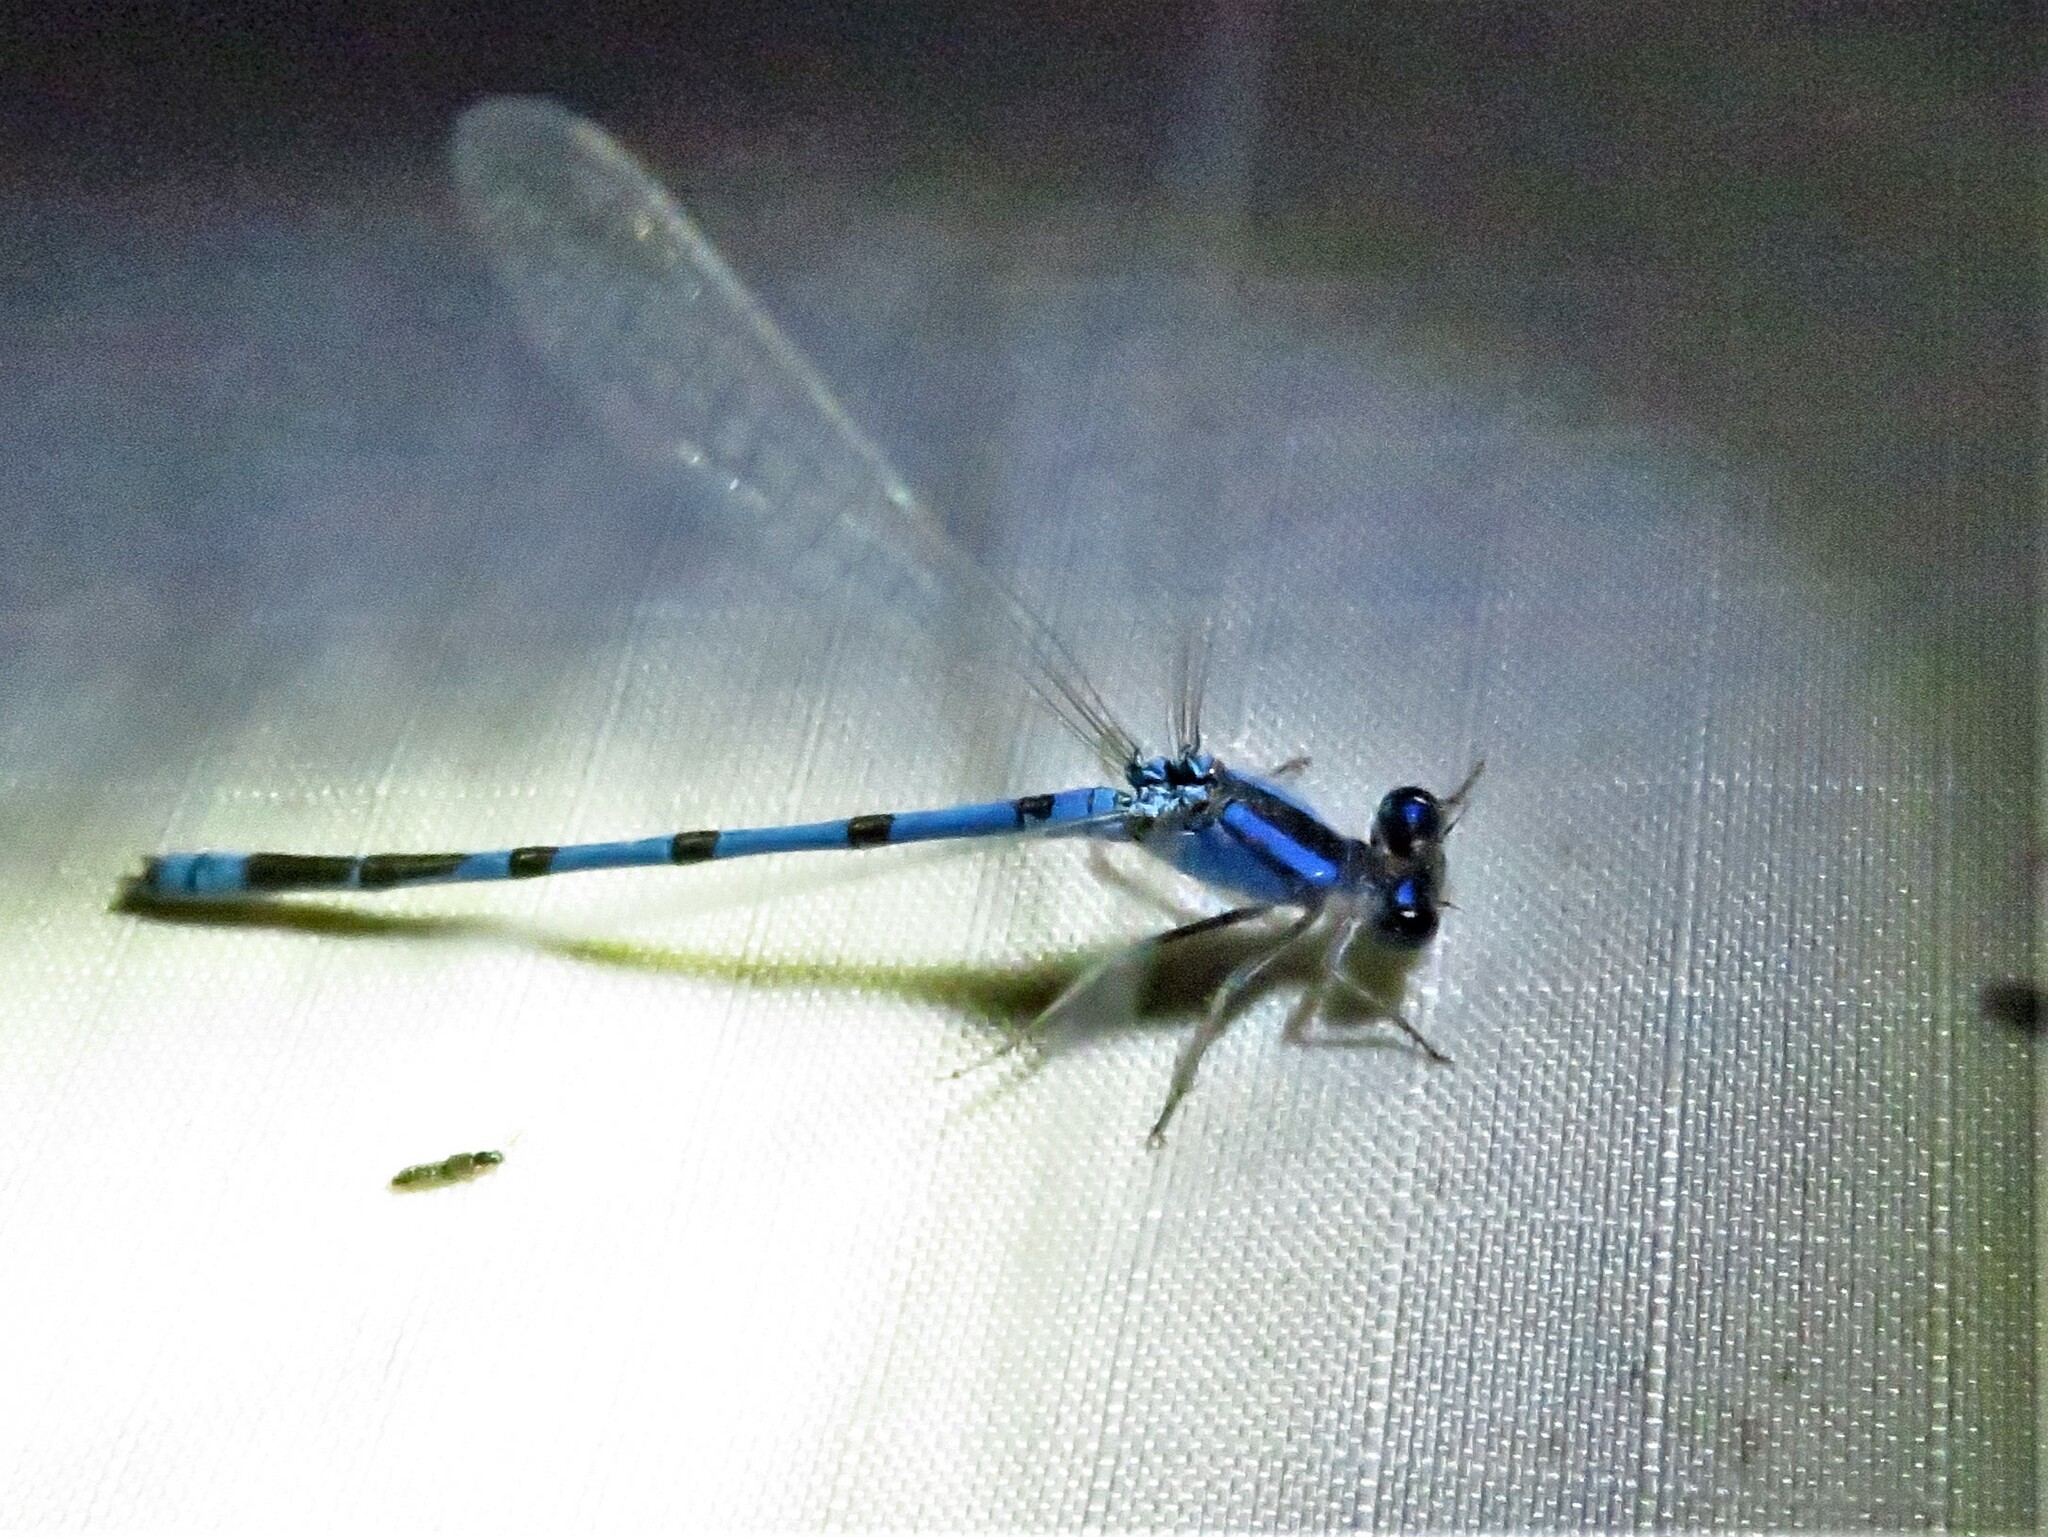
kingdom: Animalia
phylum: Arthropoda
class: Insecta
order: Odonata
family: Coenagrionidae
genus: Enallagma
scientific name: Enallagma civile
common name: Damselfly
